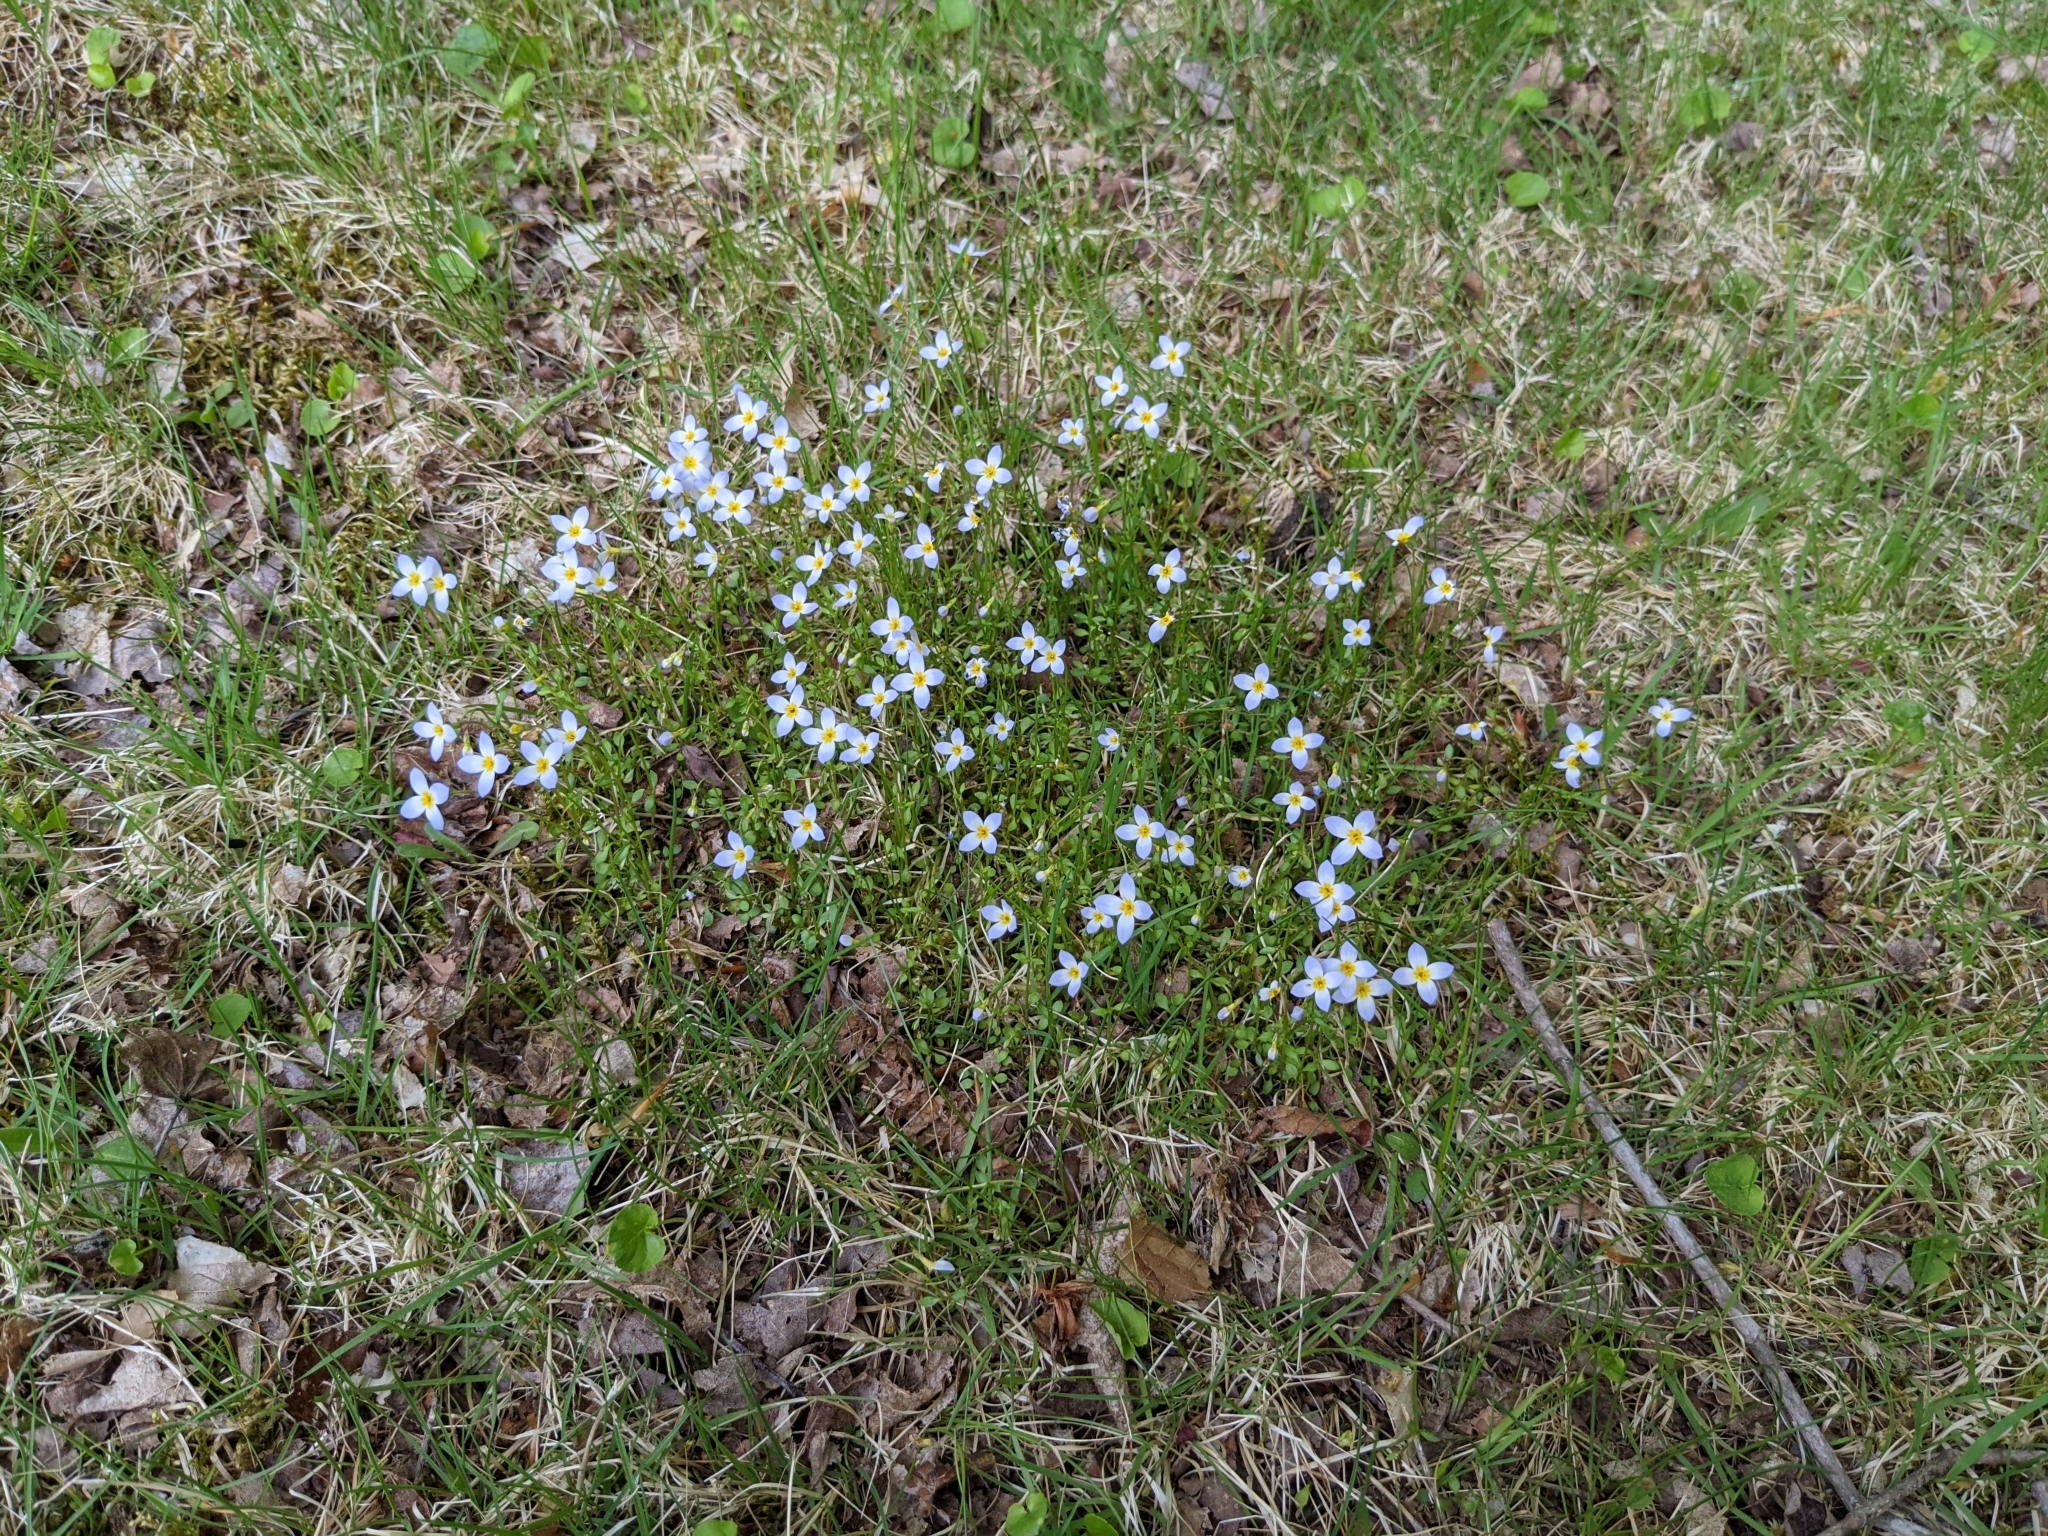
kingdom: Plantae
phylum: Tracheophyta
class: Magnoliopsida
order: Gentianales
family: Rubiaceae
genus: Houstonia
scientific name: Houstonia caerulea
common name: Bluets
